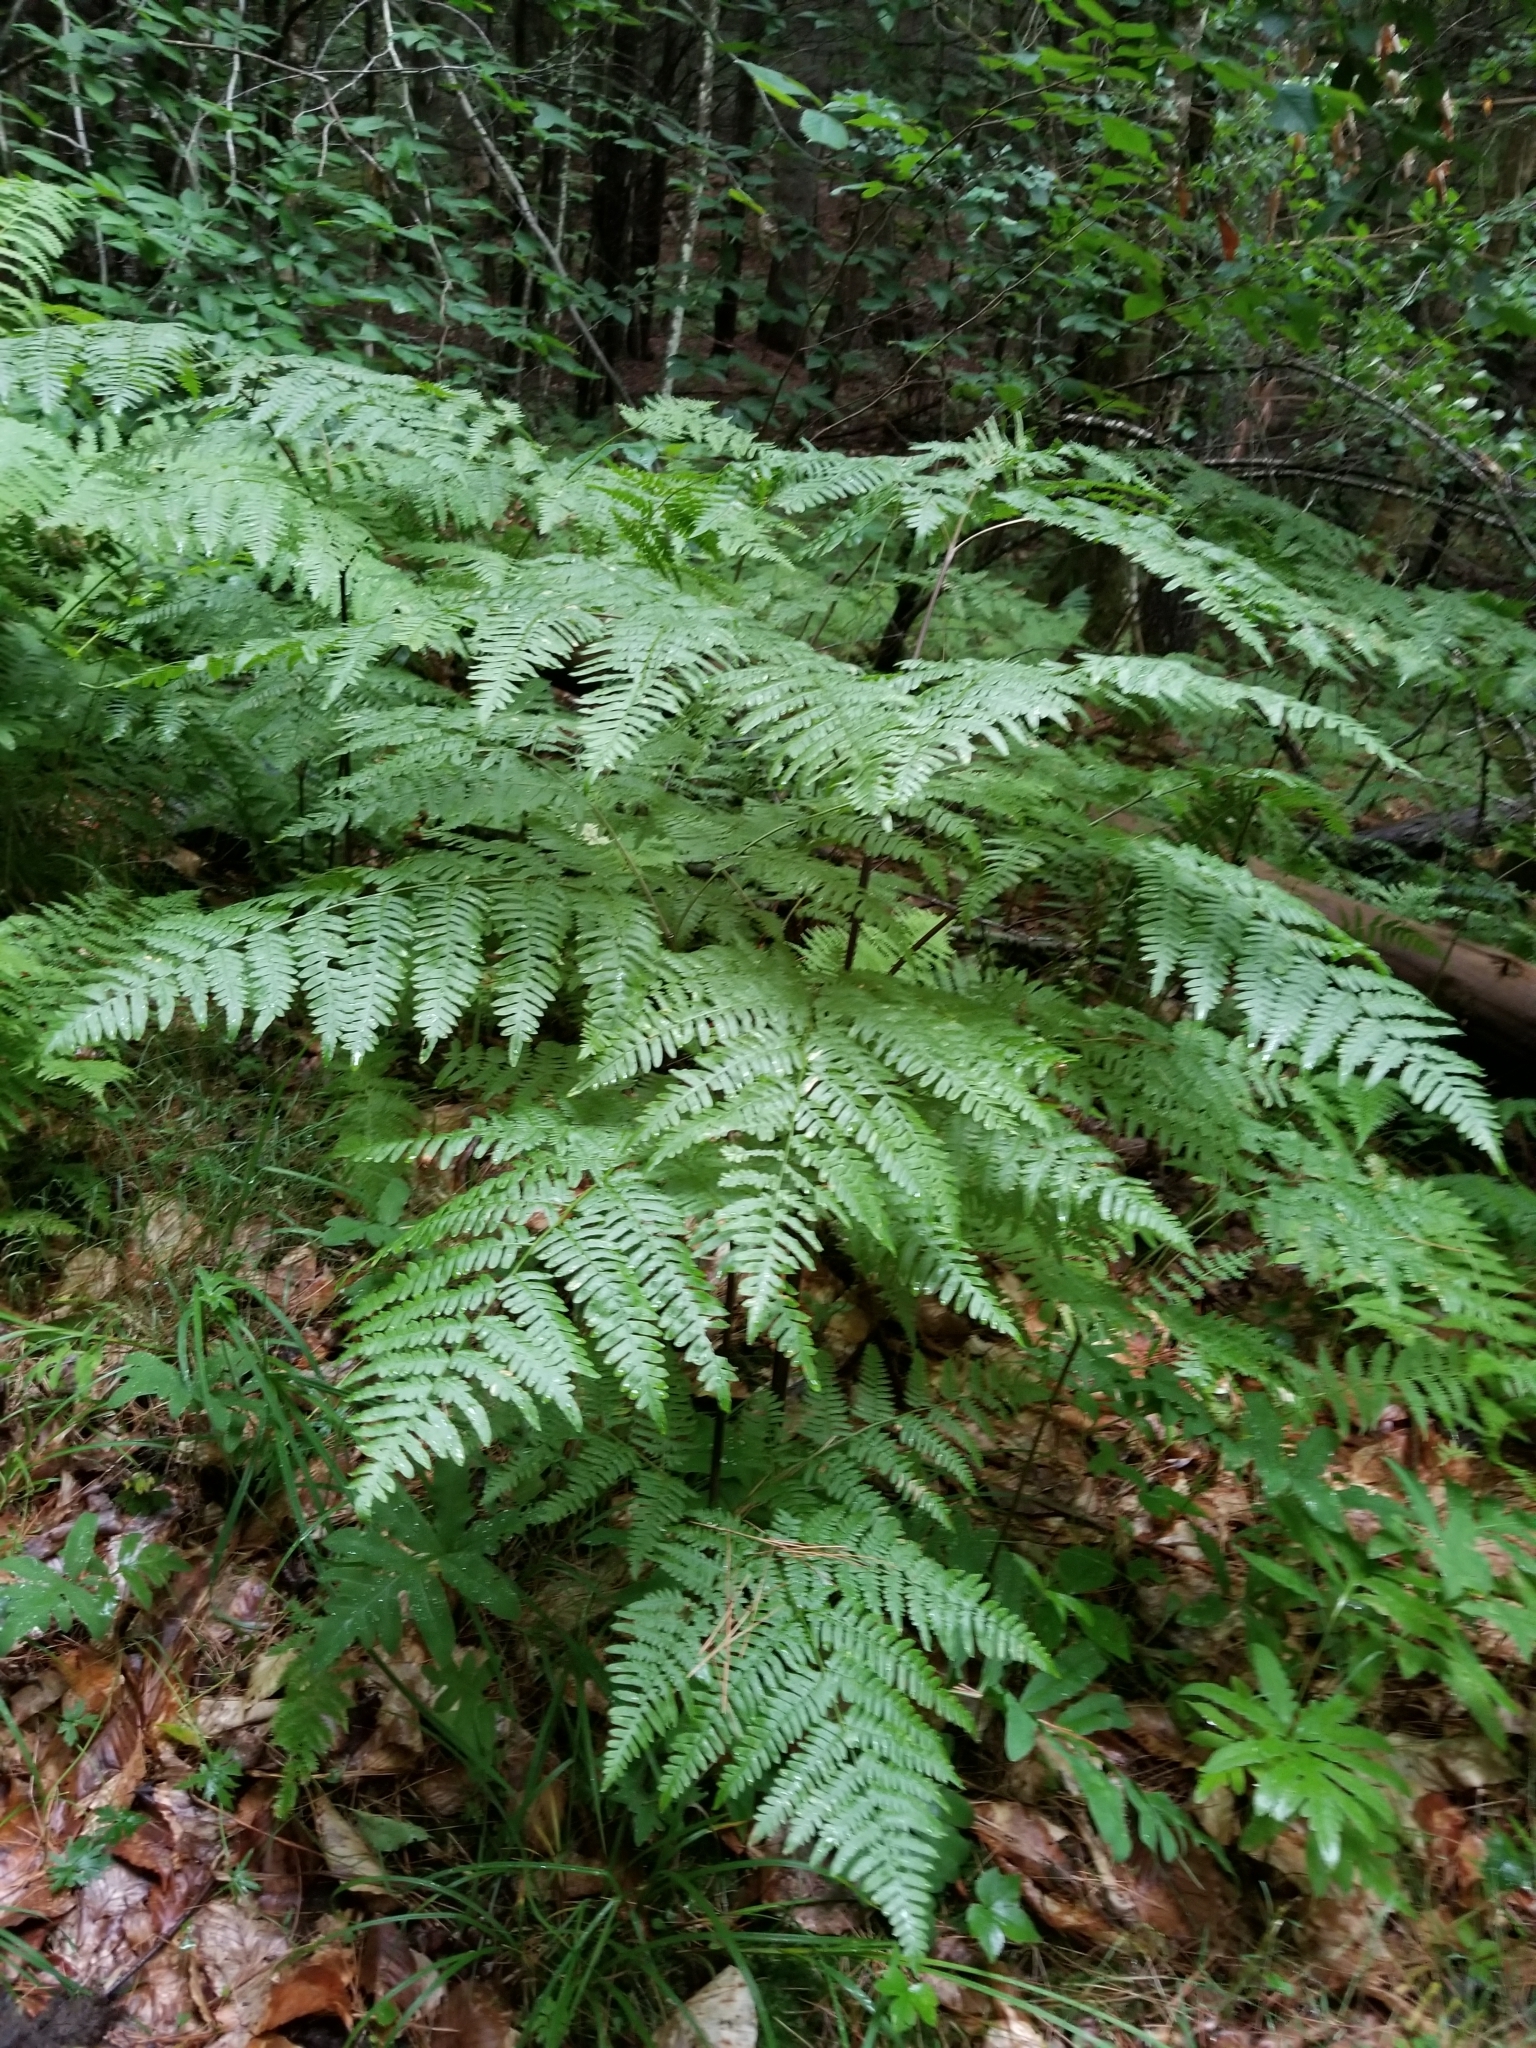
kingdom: Plantae
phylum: Tracheophyta
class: Polypodiopsida
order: Polypodiales
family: Dennstaedtiaceae
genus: Pteridium
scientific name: Pteridium aquilinum
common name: Bracken
